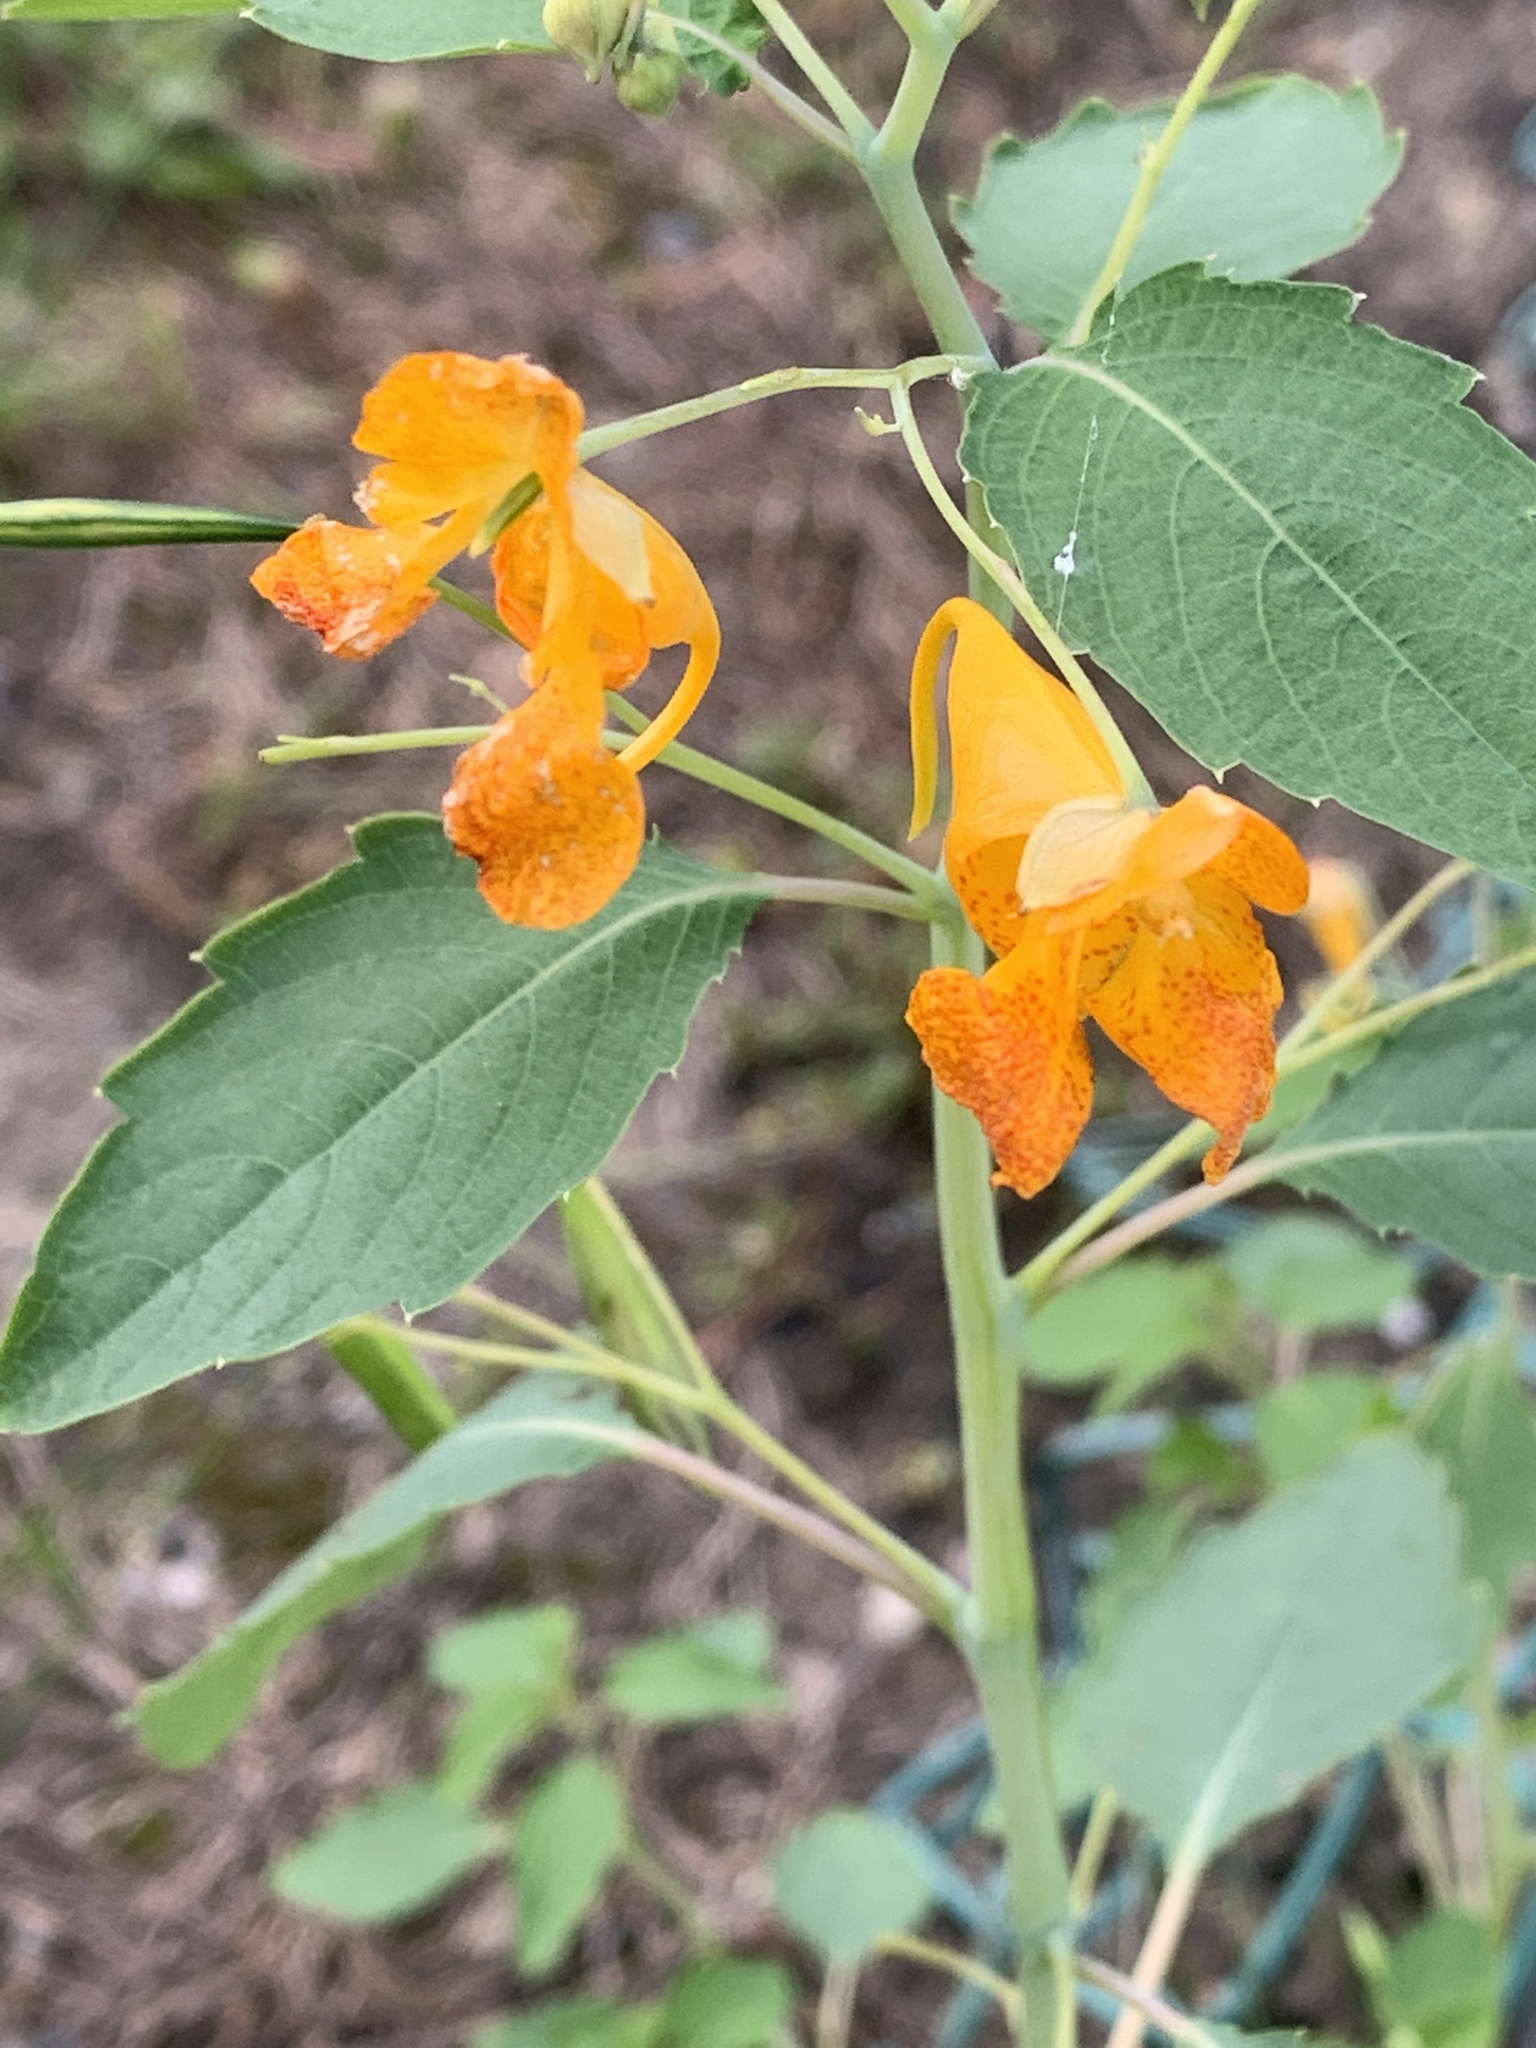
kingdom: Plantae
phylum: Tracheophyta
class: Magnoliopsida
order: Ericales
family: Balsaminaceae
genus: Impatiens
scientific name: Impatiens capensis
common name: Orange balsam
